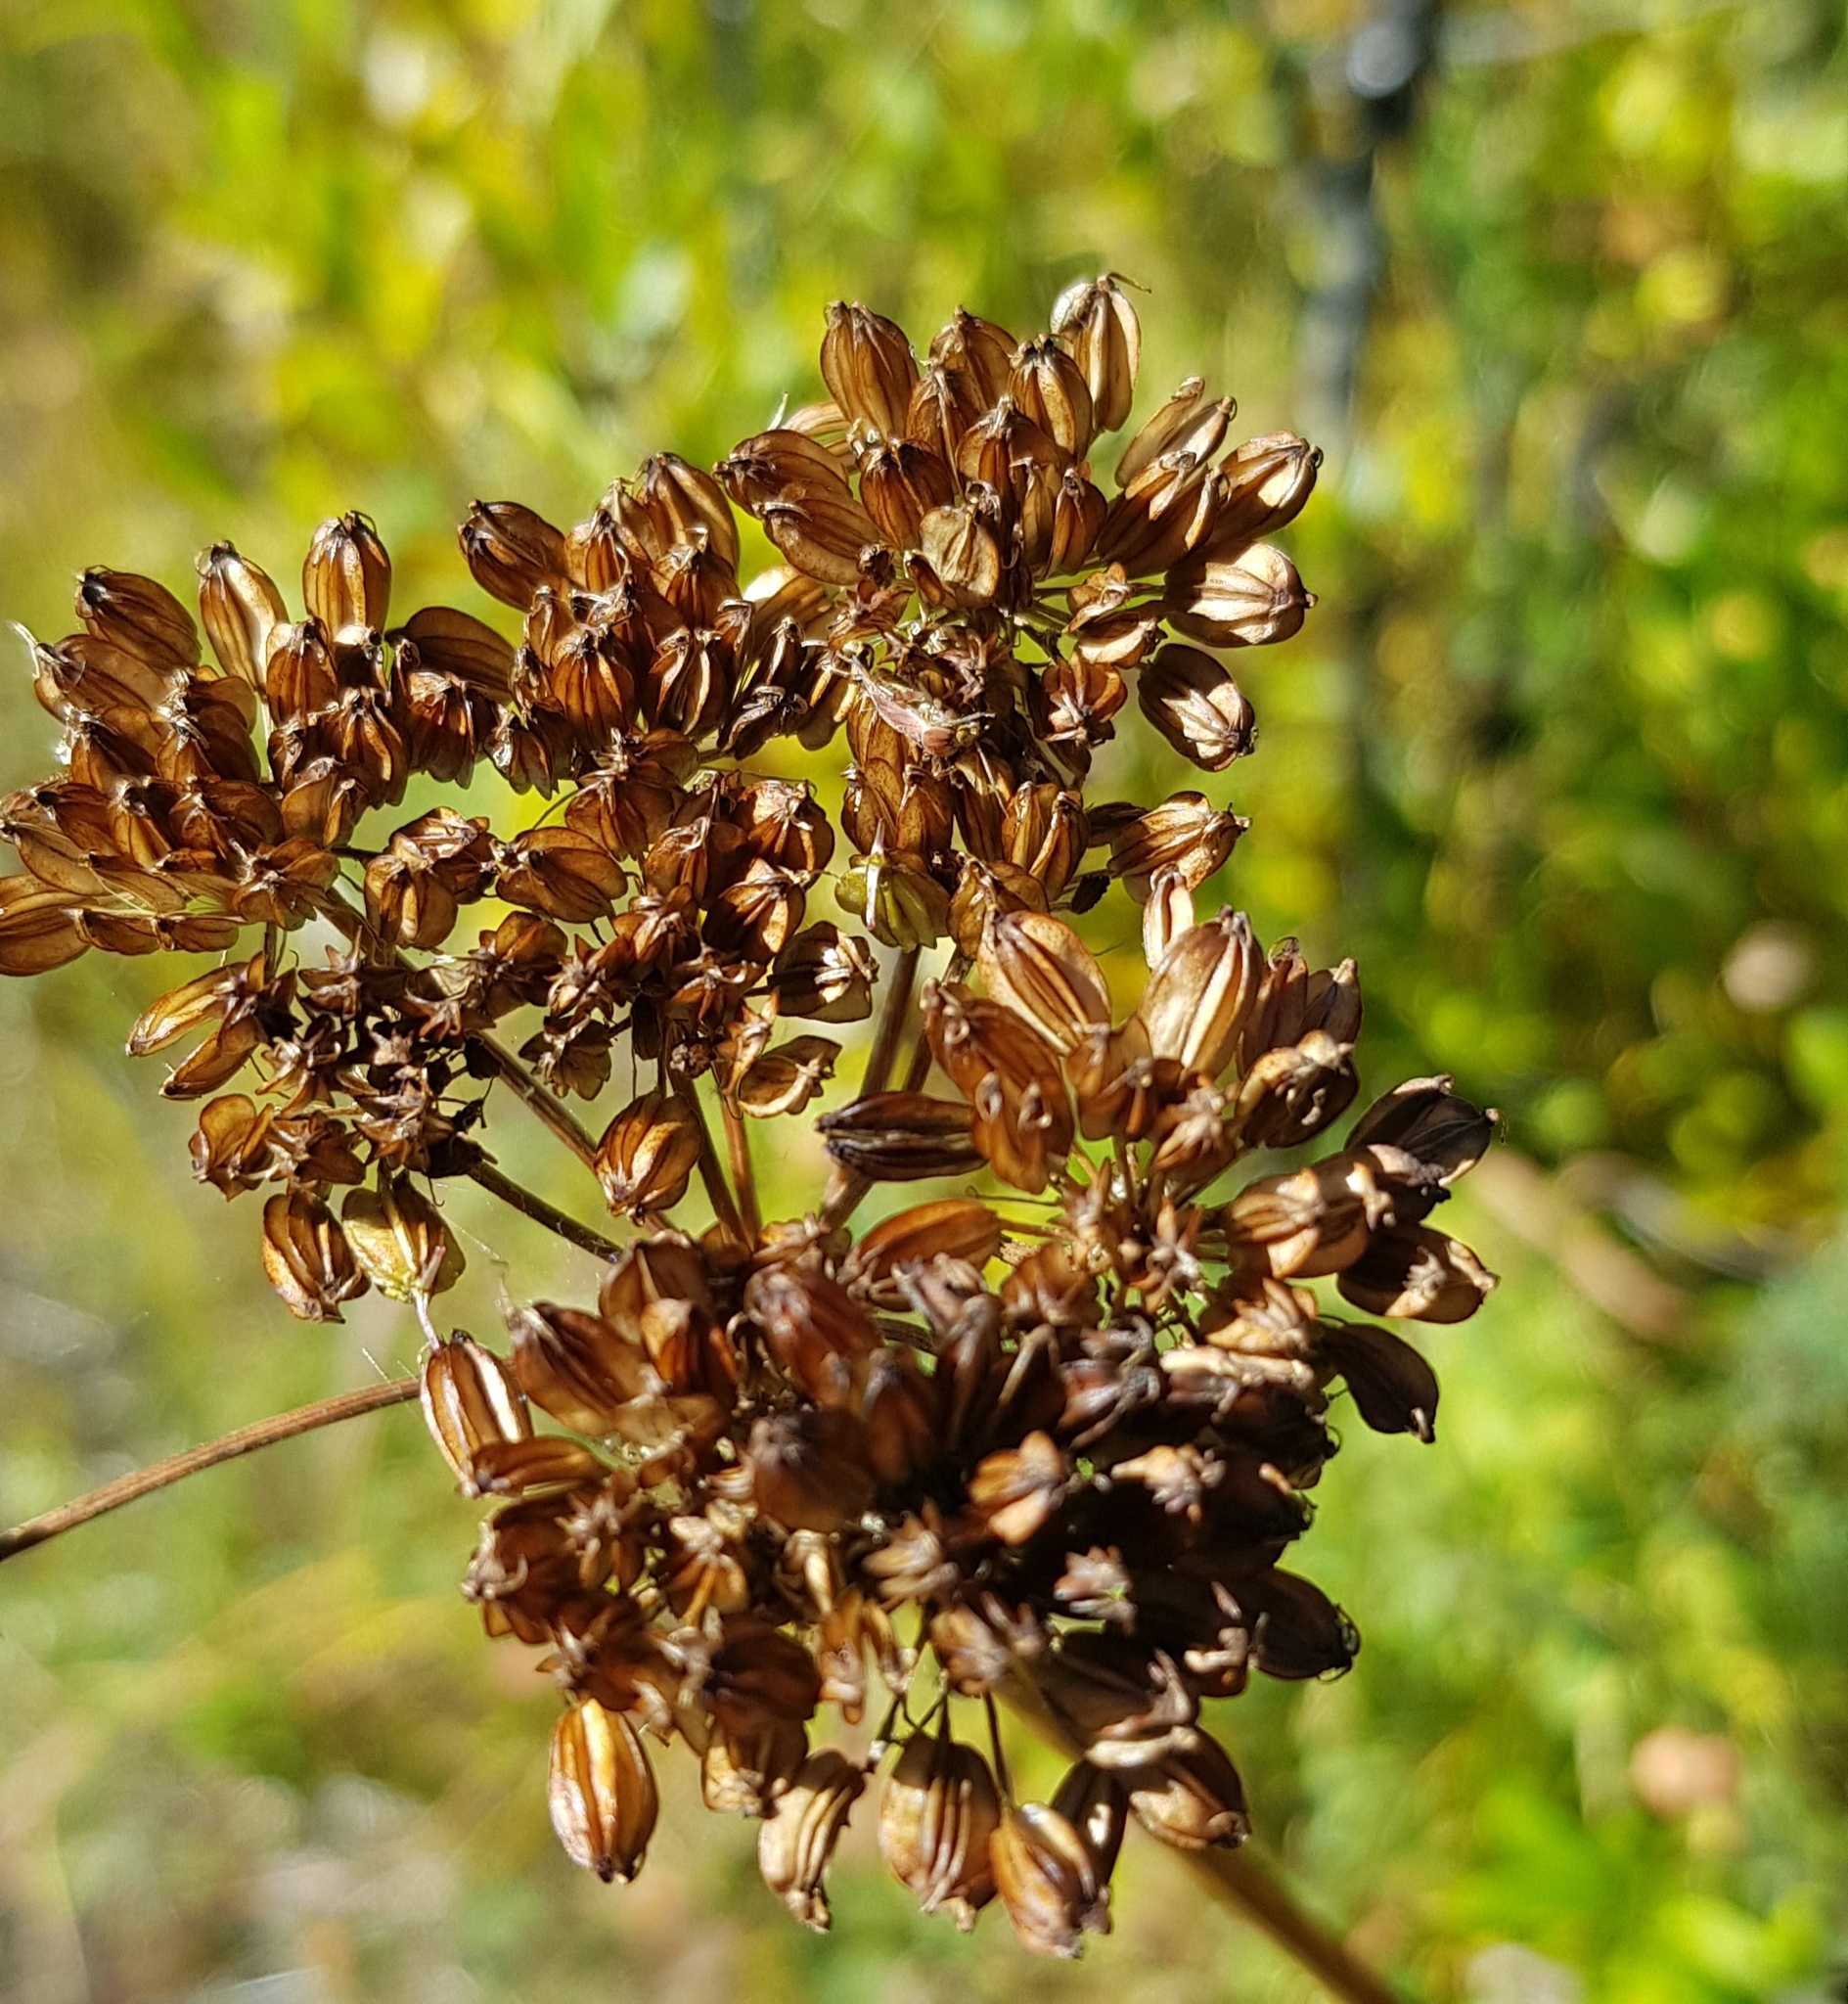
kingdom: Plantae
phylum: Tracheophyta
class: Magnoliopsida
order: Apiales
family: Apiaceae
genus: Conioselinum
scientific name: Conioselinum tataricum
